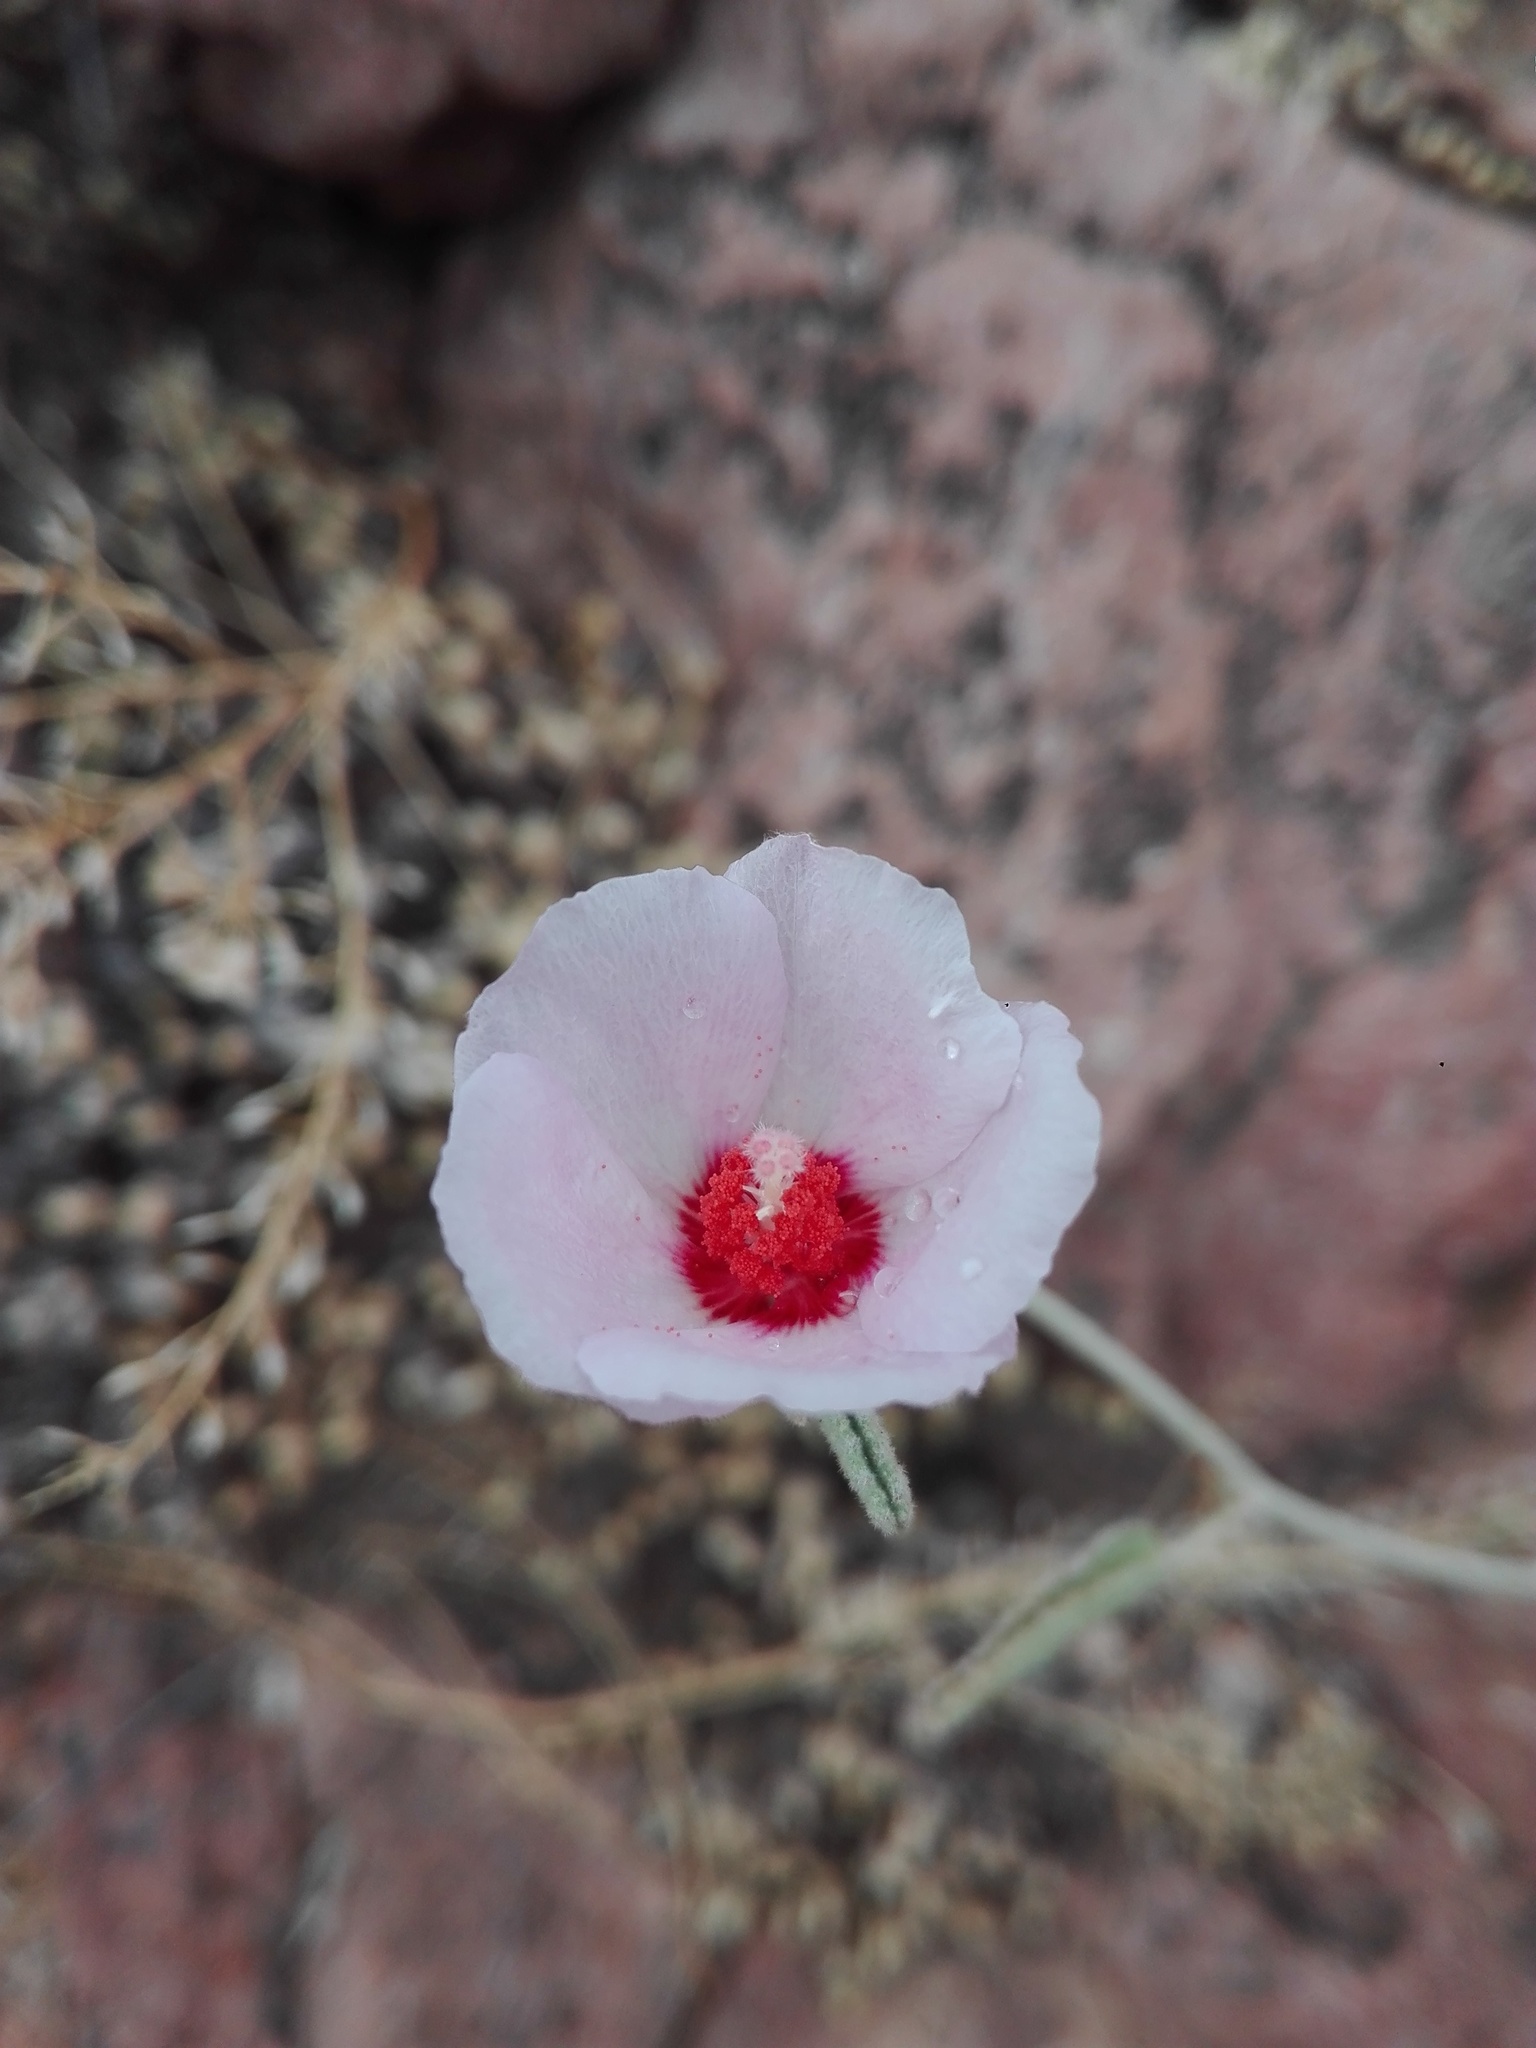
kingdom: Plantae
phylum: Tracheophyta
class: Magnoliopsida
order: Malvales
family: Malvaceae
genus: Hibiscus
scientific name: Hibiscus denudatus
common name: Paleface
